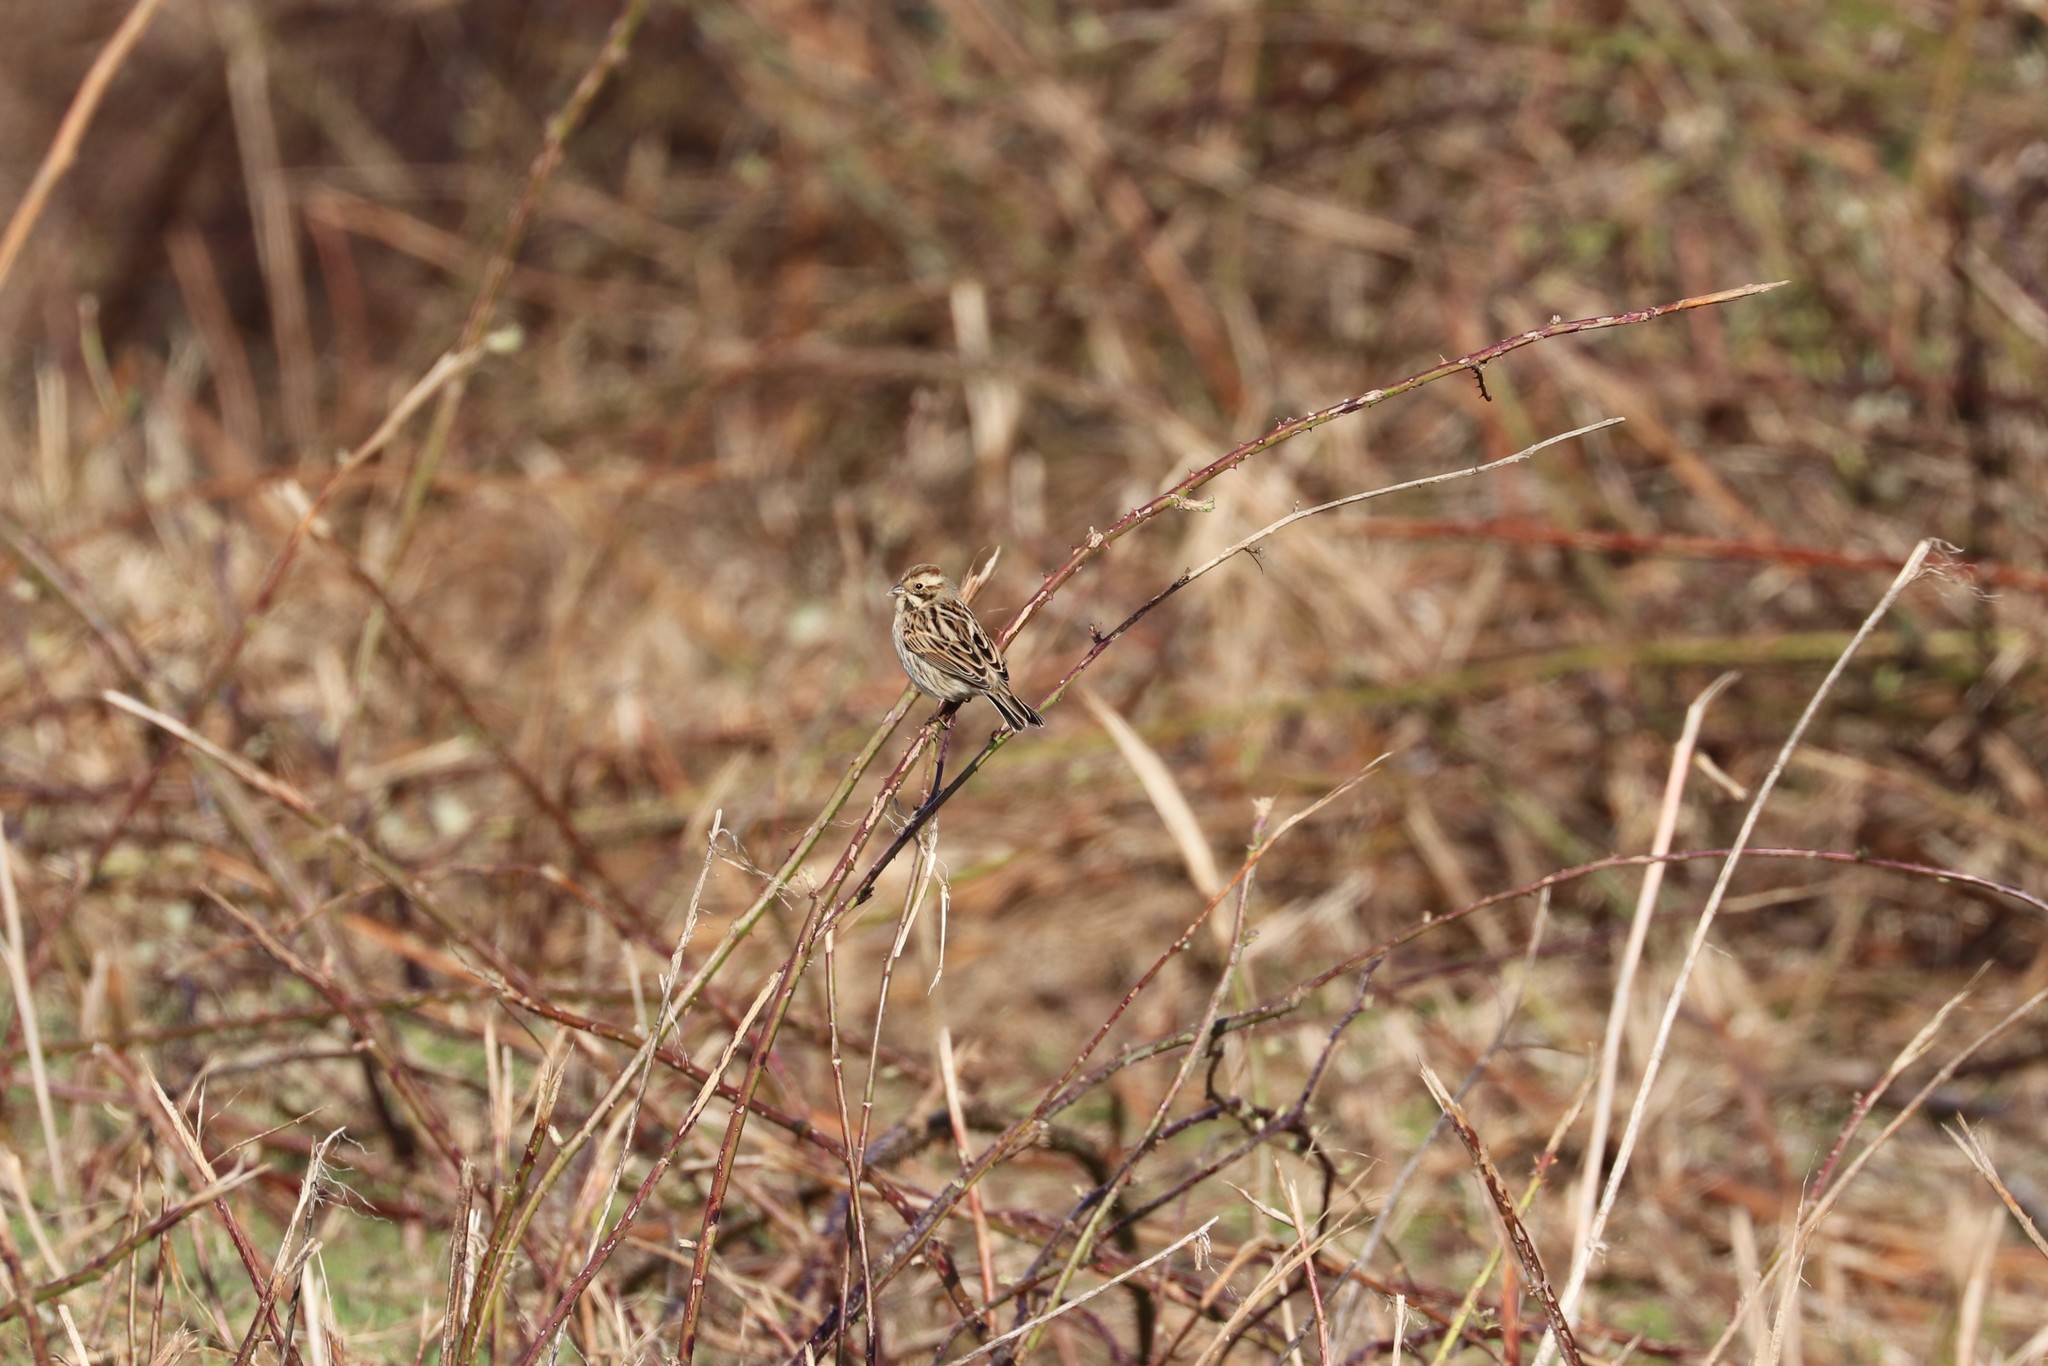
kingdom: Animalia
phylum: Chordata
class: Aves
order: Passeriformes
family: Emberizidae
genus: Emberiza
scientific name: Emberiza schoeniclus
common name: Reed bunting
